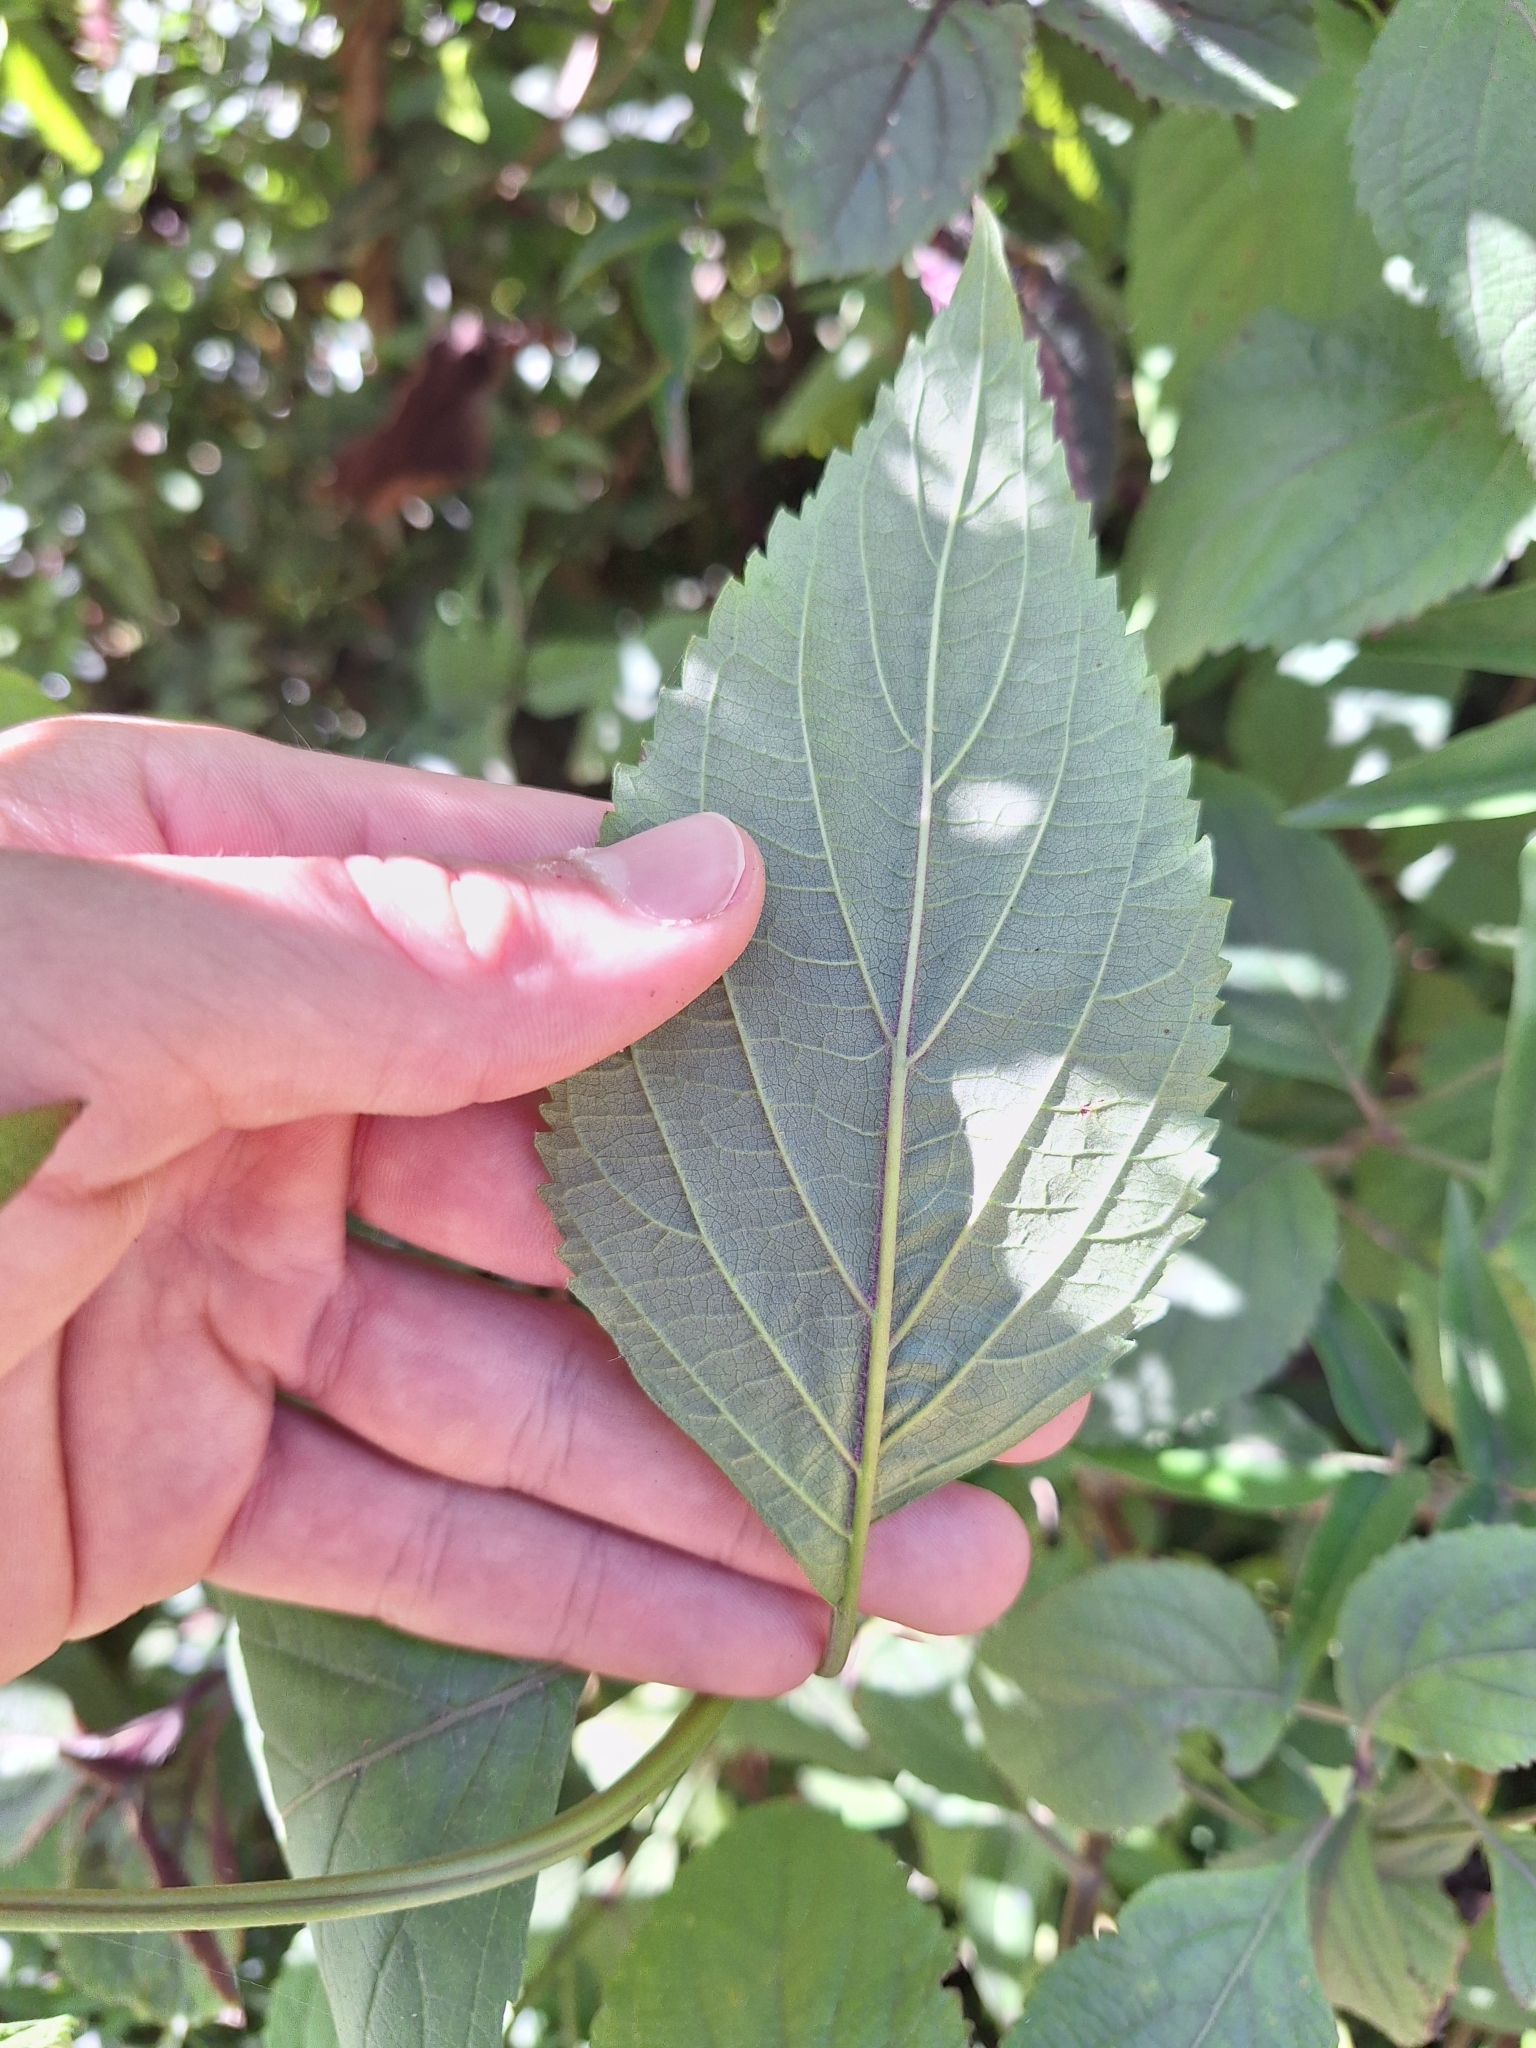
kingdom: Plantae
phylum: Tracheophyta
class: Magnoliopsida
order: Lamiales
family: Lamiaceae
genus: Plectranthus
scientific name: Plectranthus ecklonii
